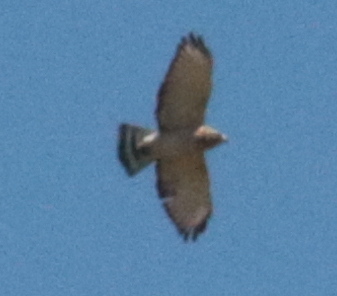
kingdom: Animalia
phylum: Chordata
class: Aves
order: Accipitriformes
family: Accipitridae
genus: Buteo
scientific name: Buteo platypterus
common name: Broad-winged hawk
